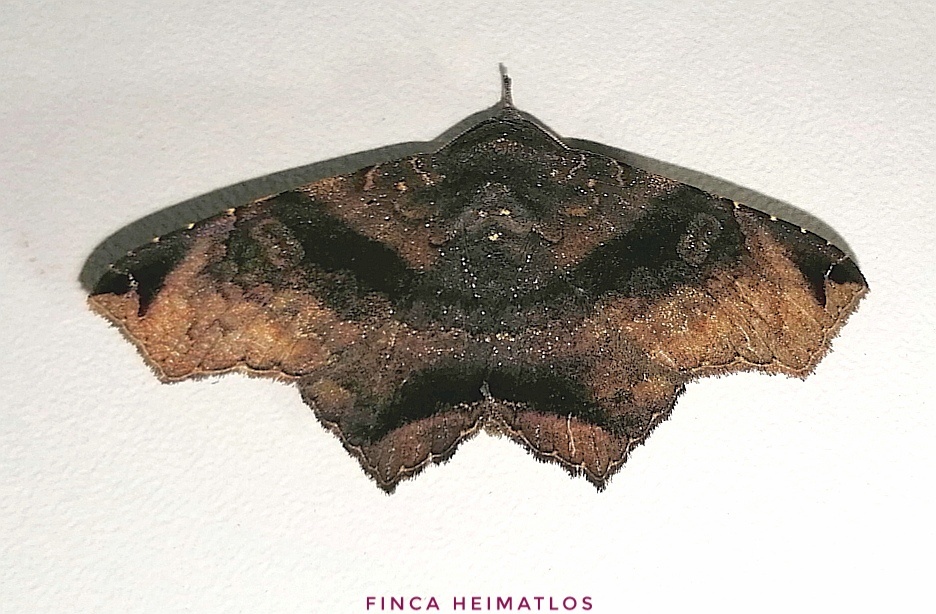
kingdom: Animalia
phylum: Arthropoda
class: Insecta
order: Lepidoptera
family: Erebidae
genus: Euclystis
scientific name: Euclystis manto
